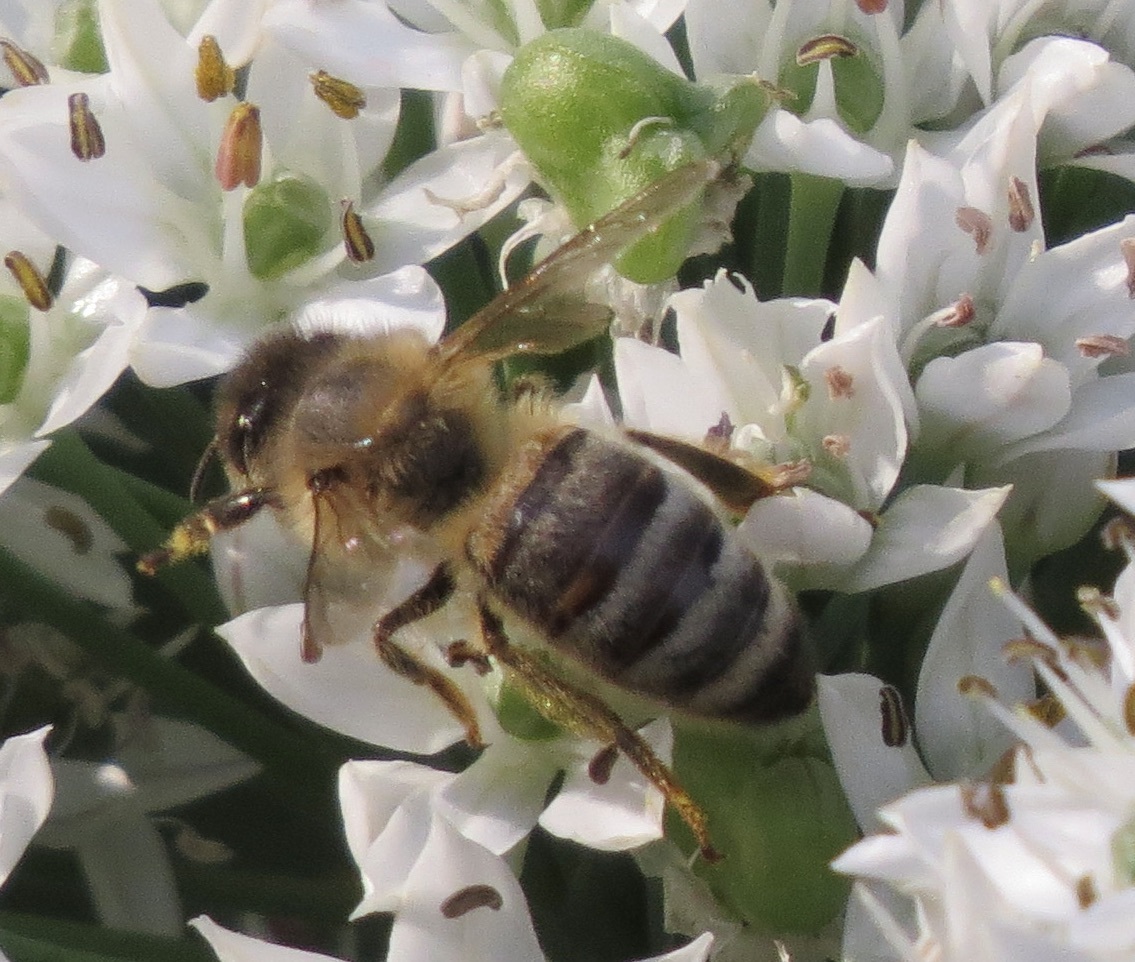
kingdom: Animalia
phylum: Arthropoda
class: Insecta
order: Hymenoptera
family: Apidae
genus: Apis
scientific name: Apis mellifera
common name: Honey bee
